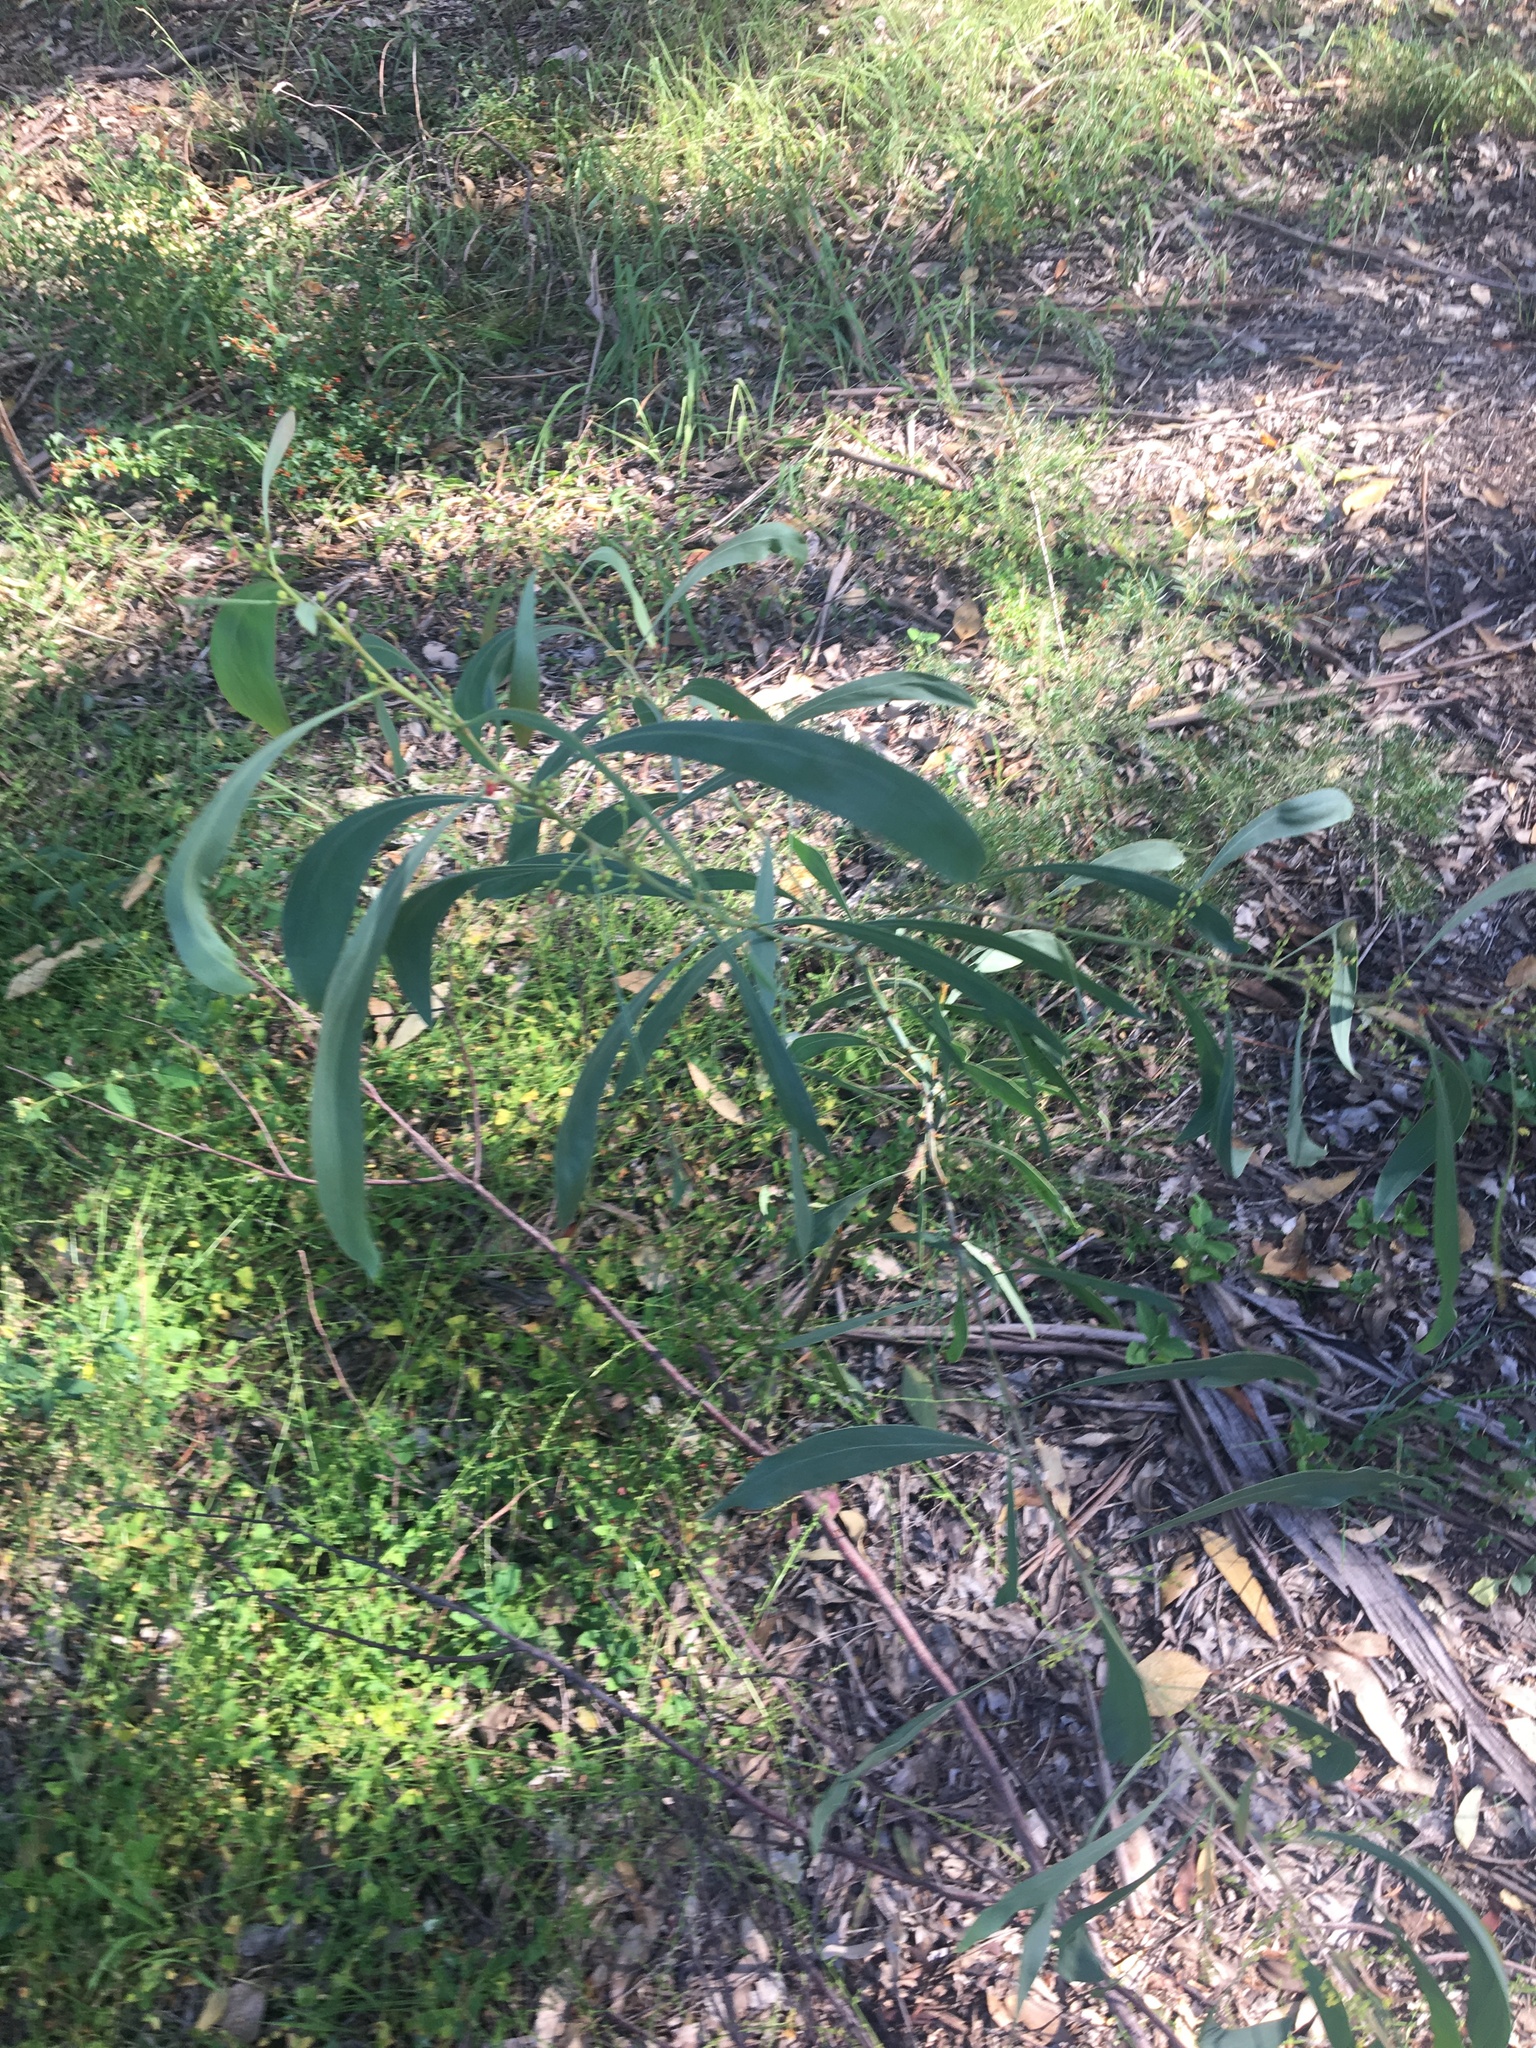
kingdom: Plantae
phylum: Tracheophyta
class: Magnoliopsida
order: Fabales
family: Fabaceae
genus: Acacia
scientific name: Acacia falcata
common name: Burra acacia
